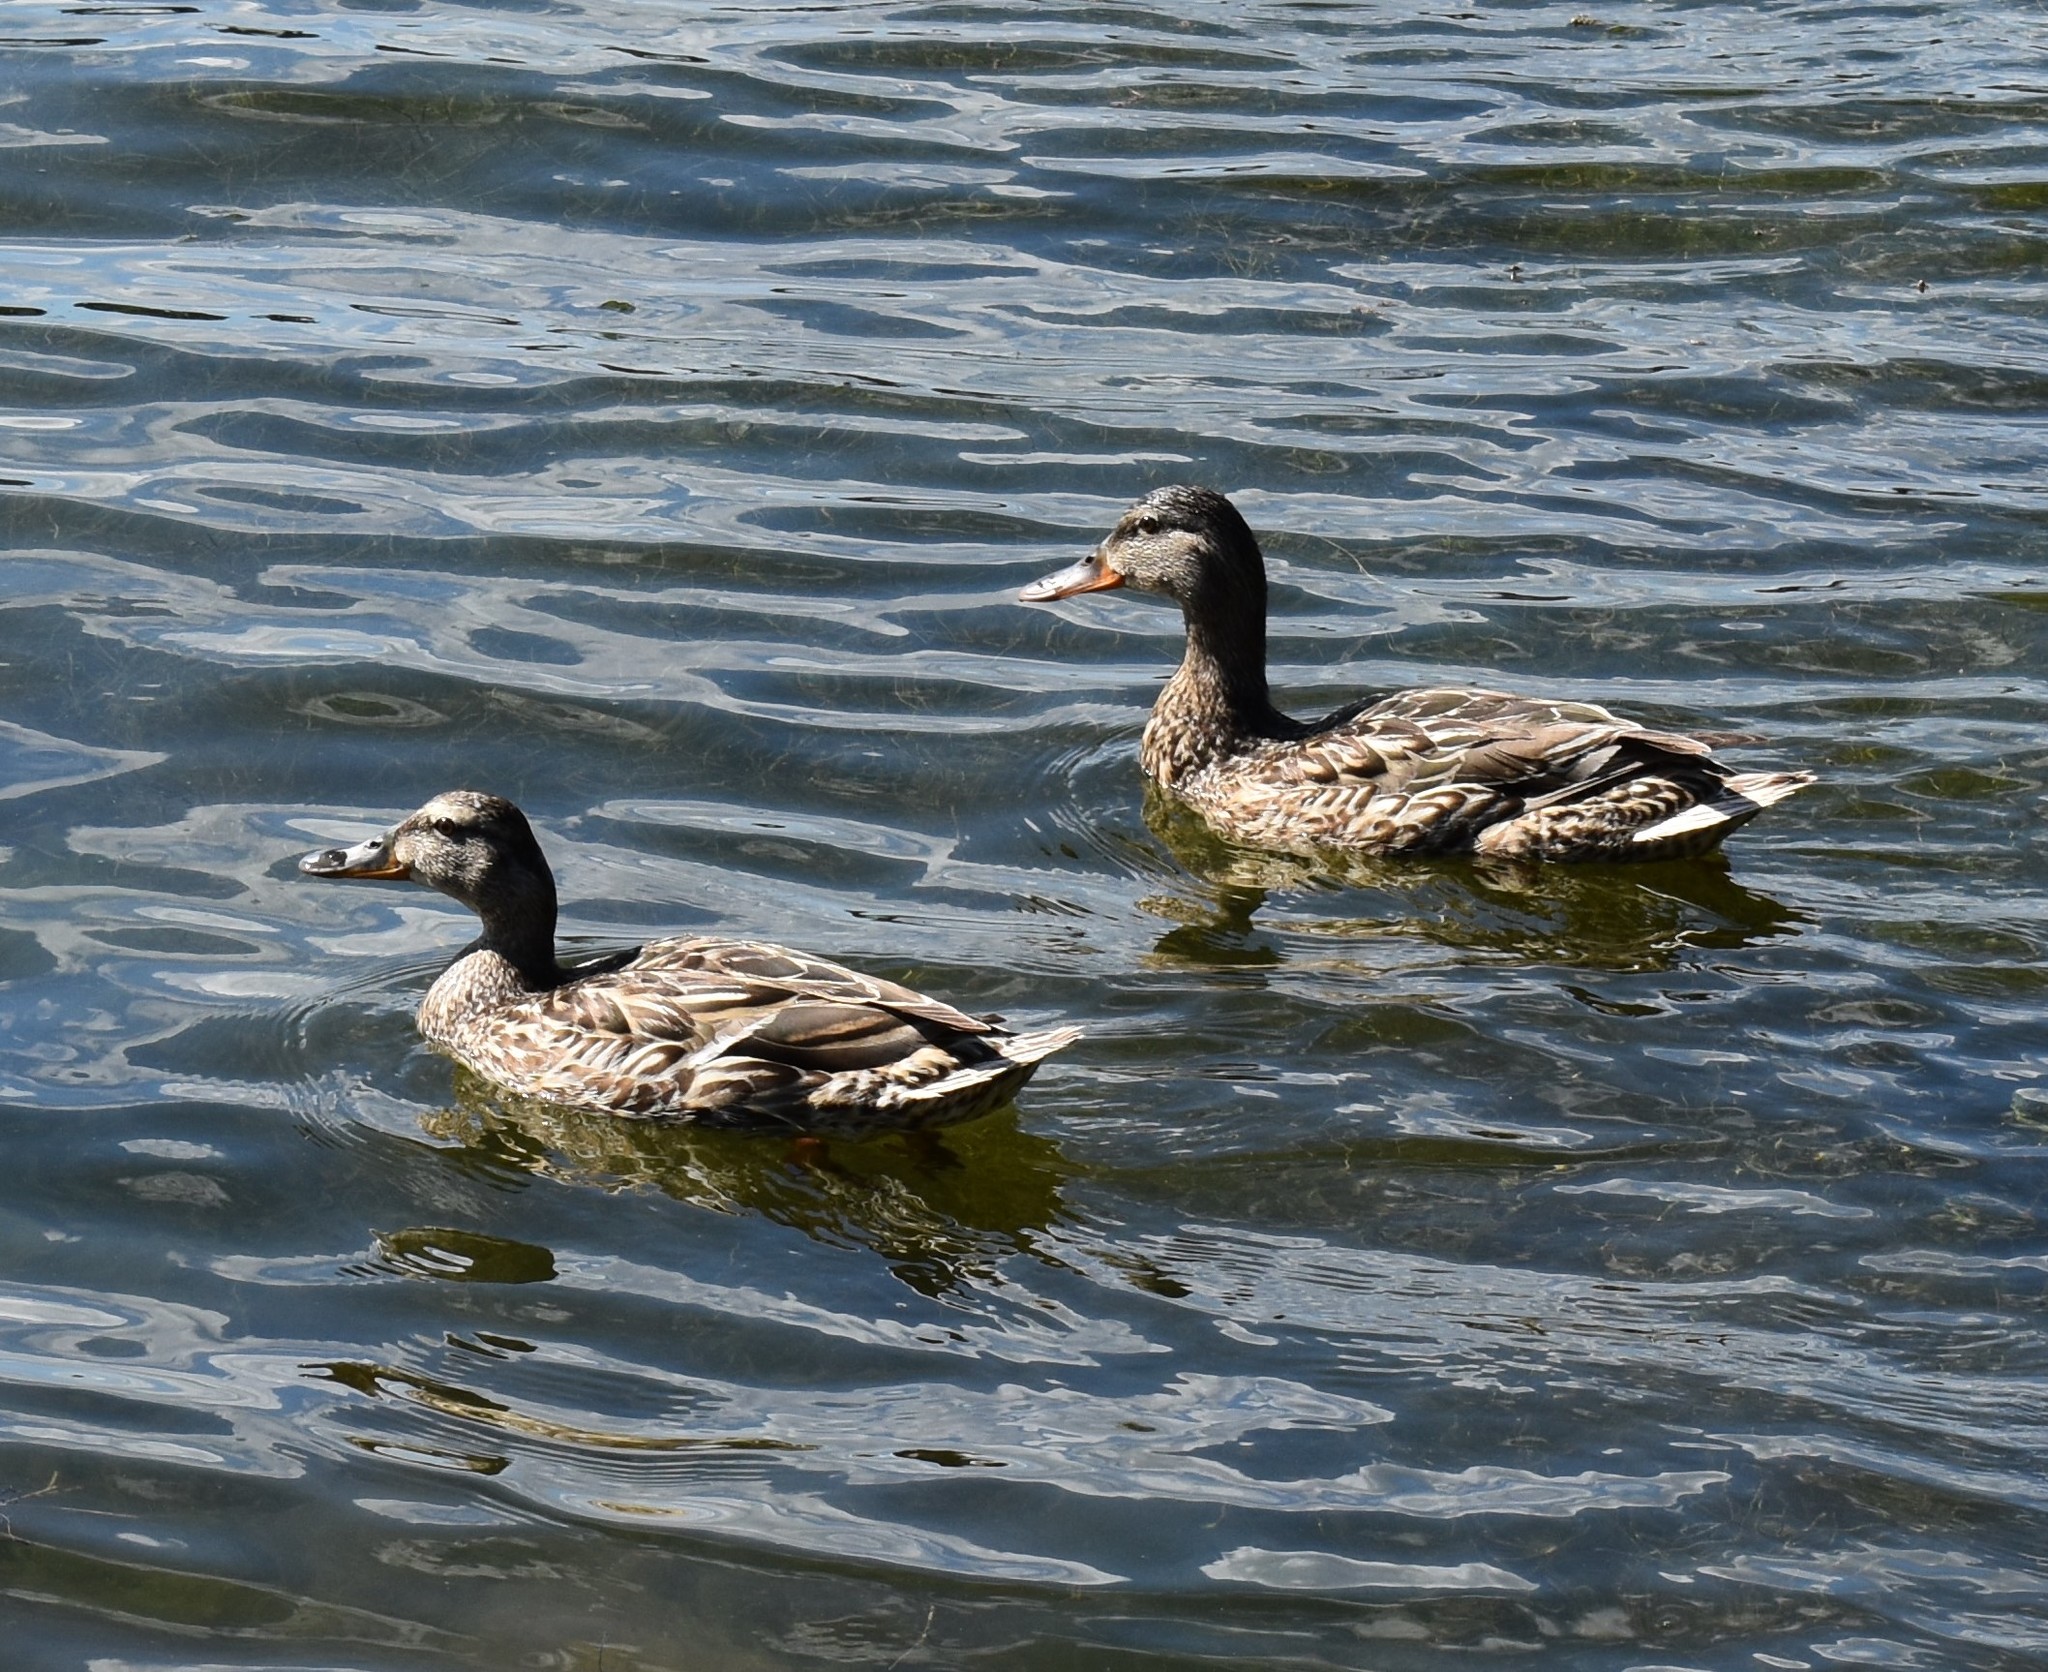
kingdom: Animalia
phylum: Chordata
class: Aves
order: Anseriformes
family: Anatidae
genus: Anas
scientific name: Anas platyrhynchos
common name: Mallard
